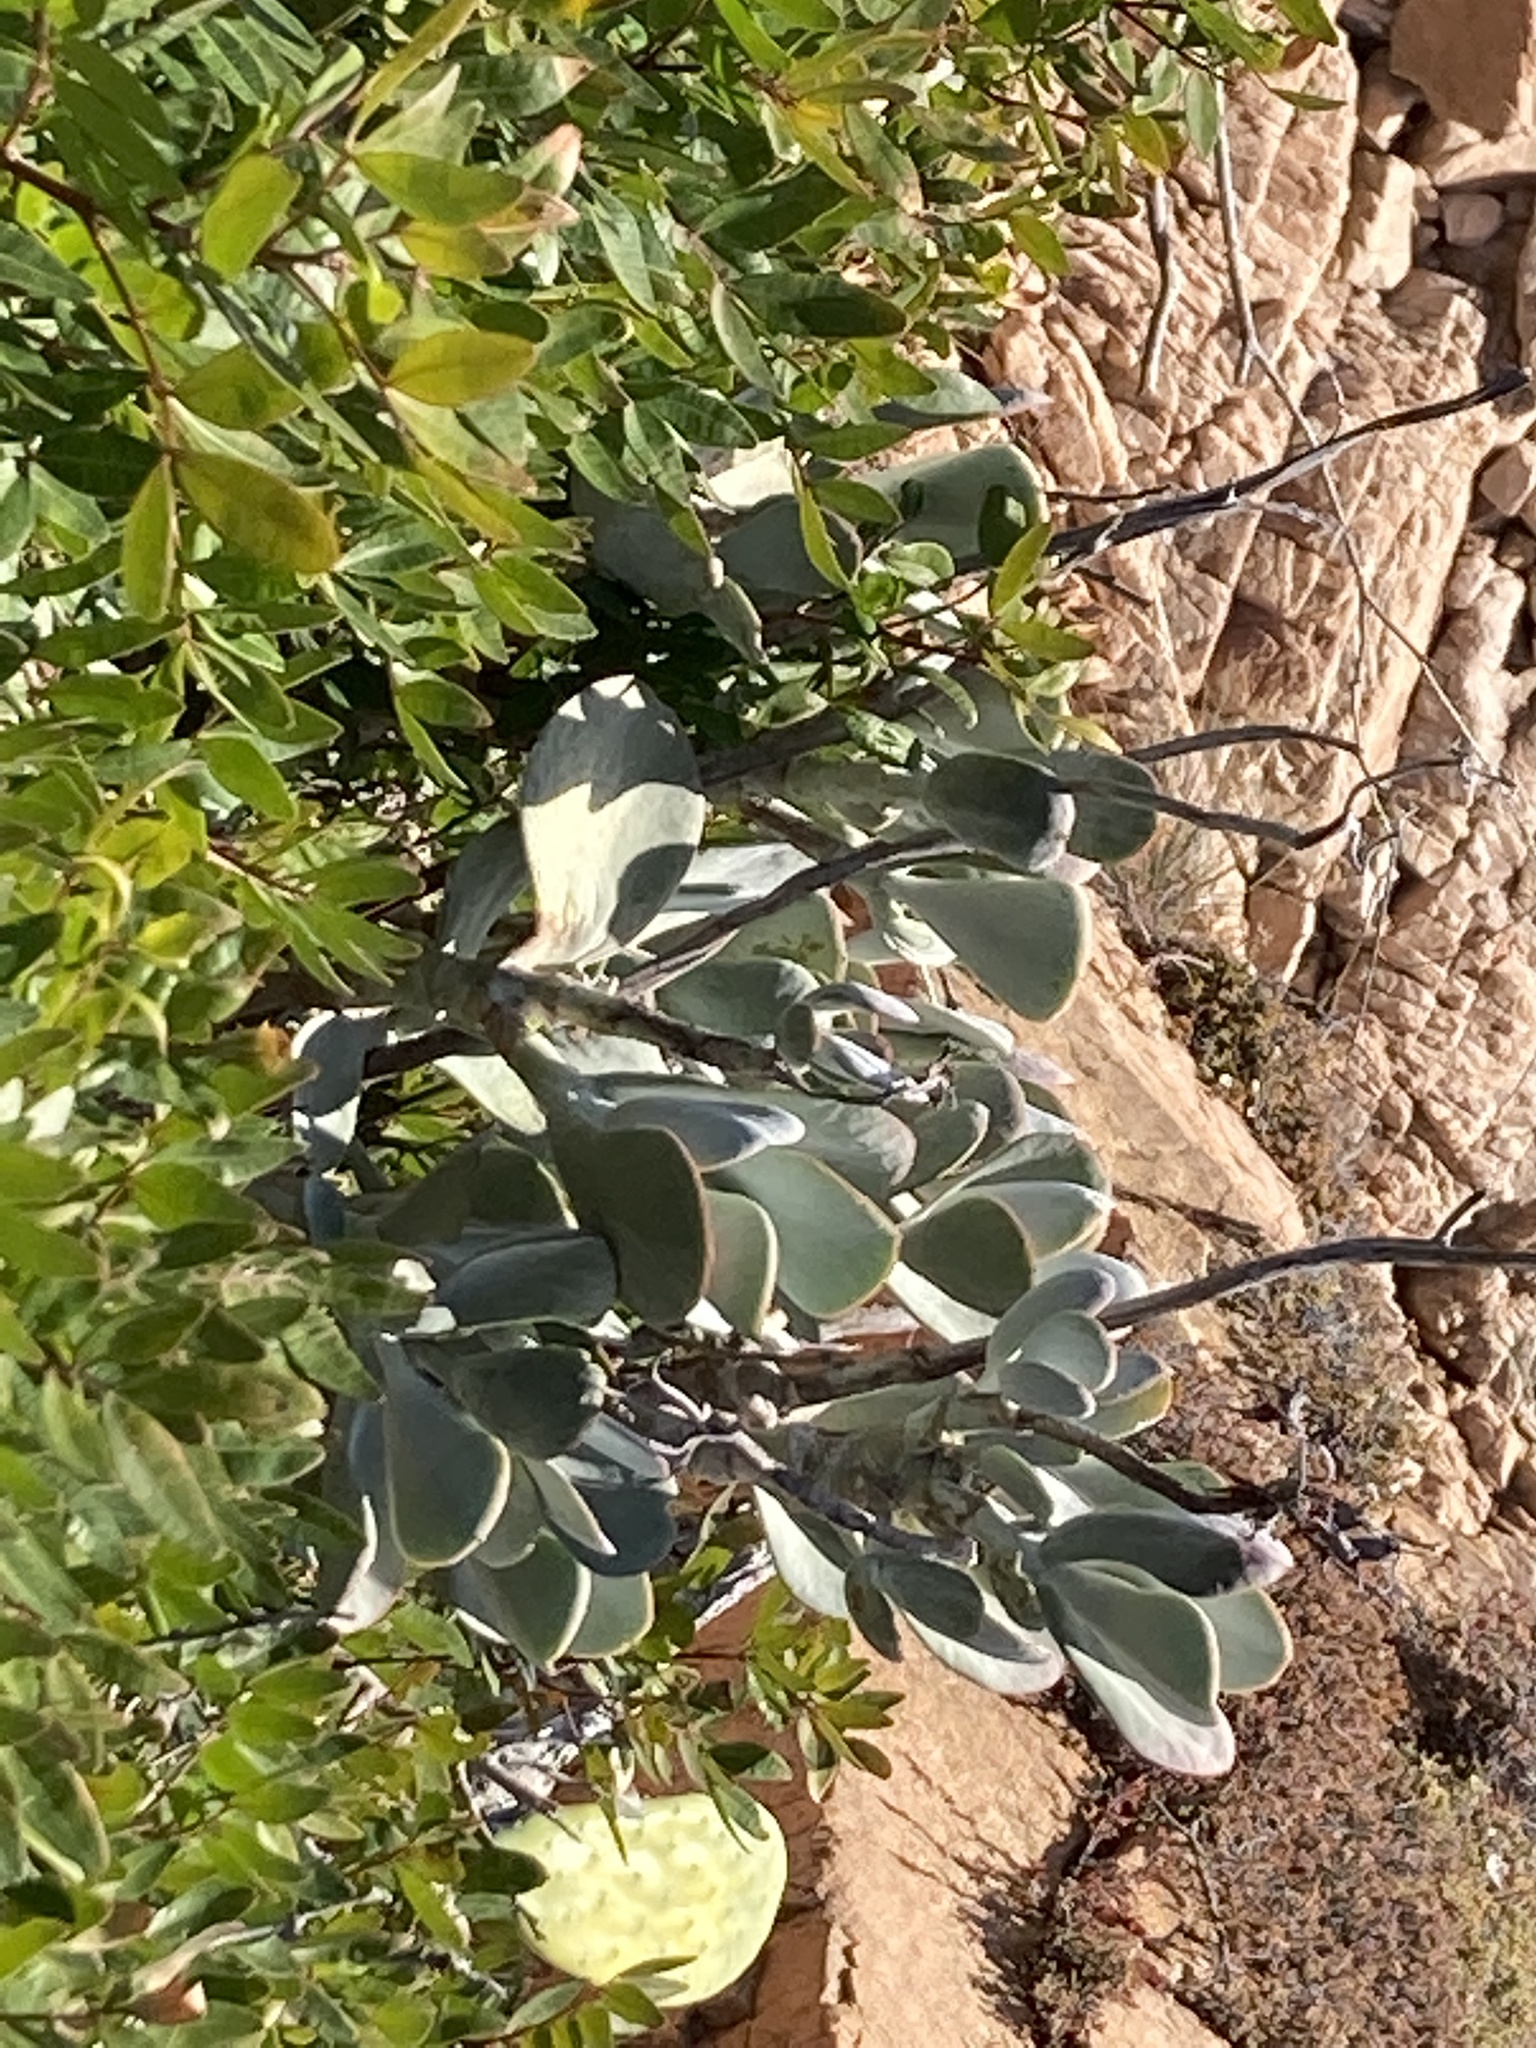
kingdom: Plantae
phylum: Tracheophyta
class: Magnoliopsida
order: Saxifragales
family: Crassulaceae
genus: Cotyledon
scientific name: Cotyledon orbiculata
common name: Pig's ear
